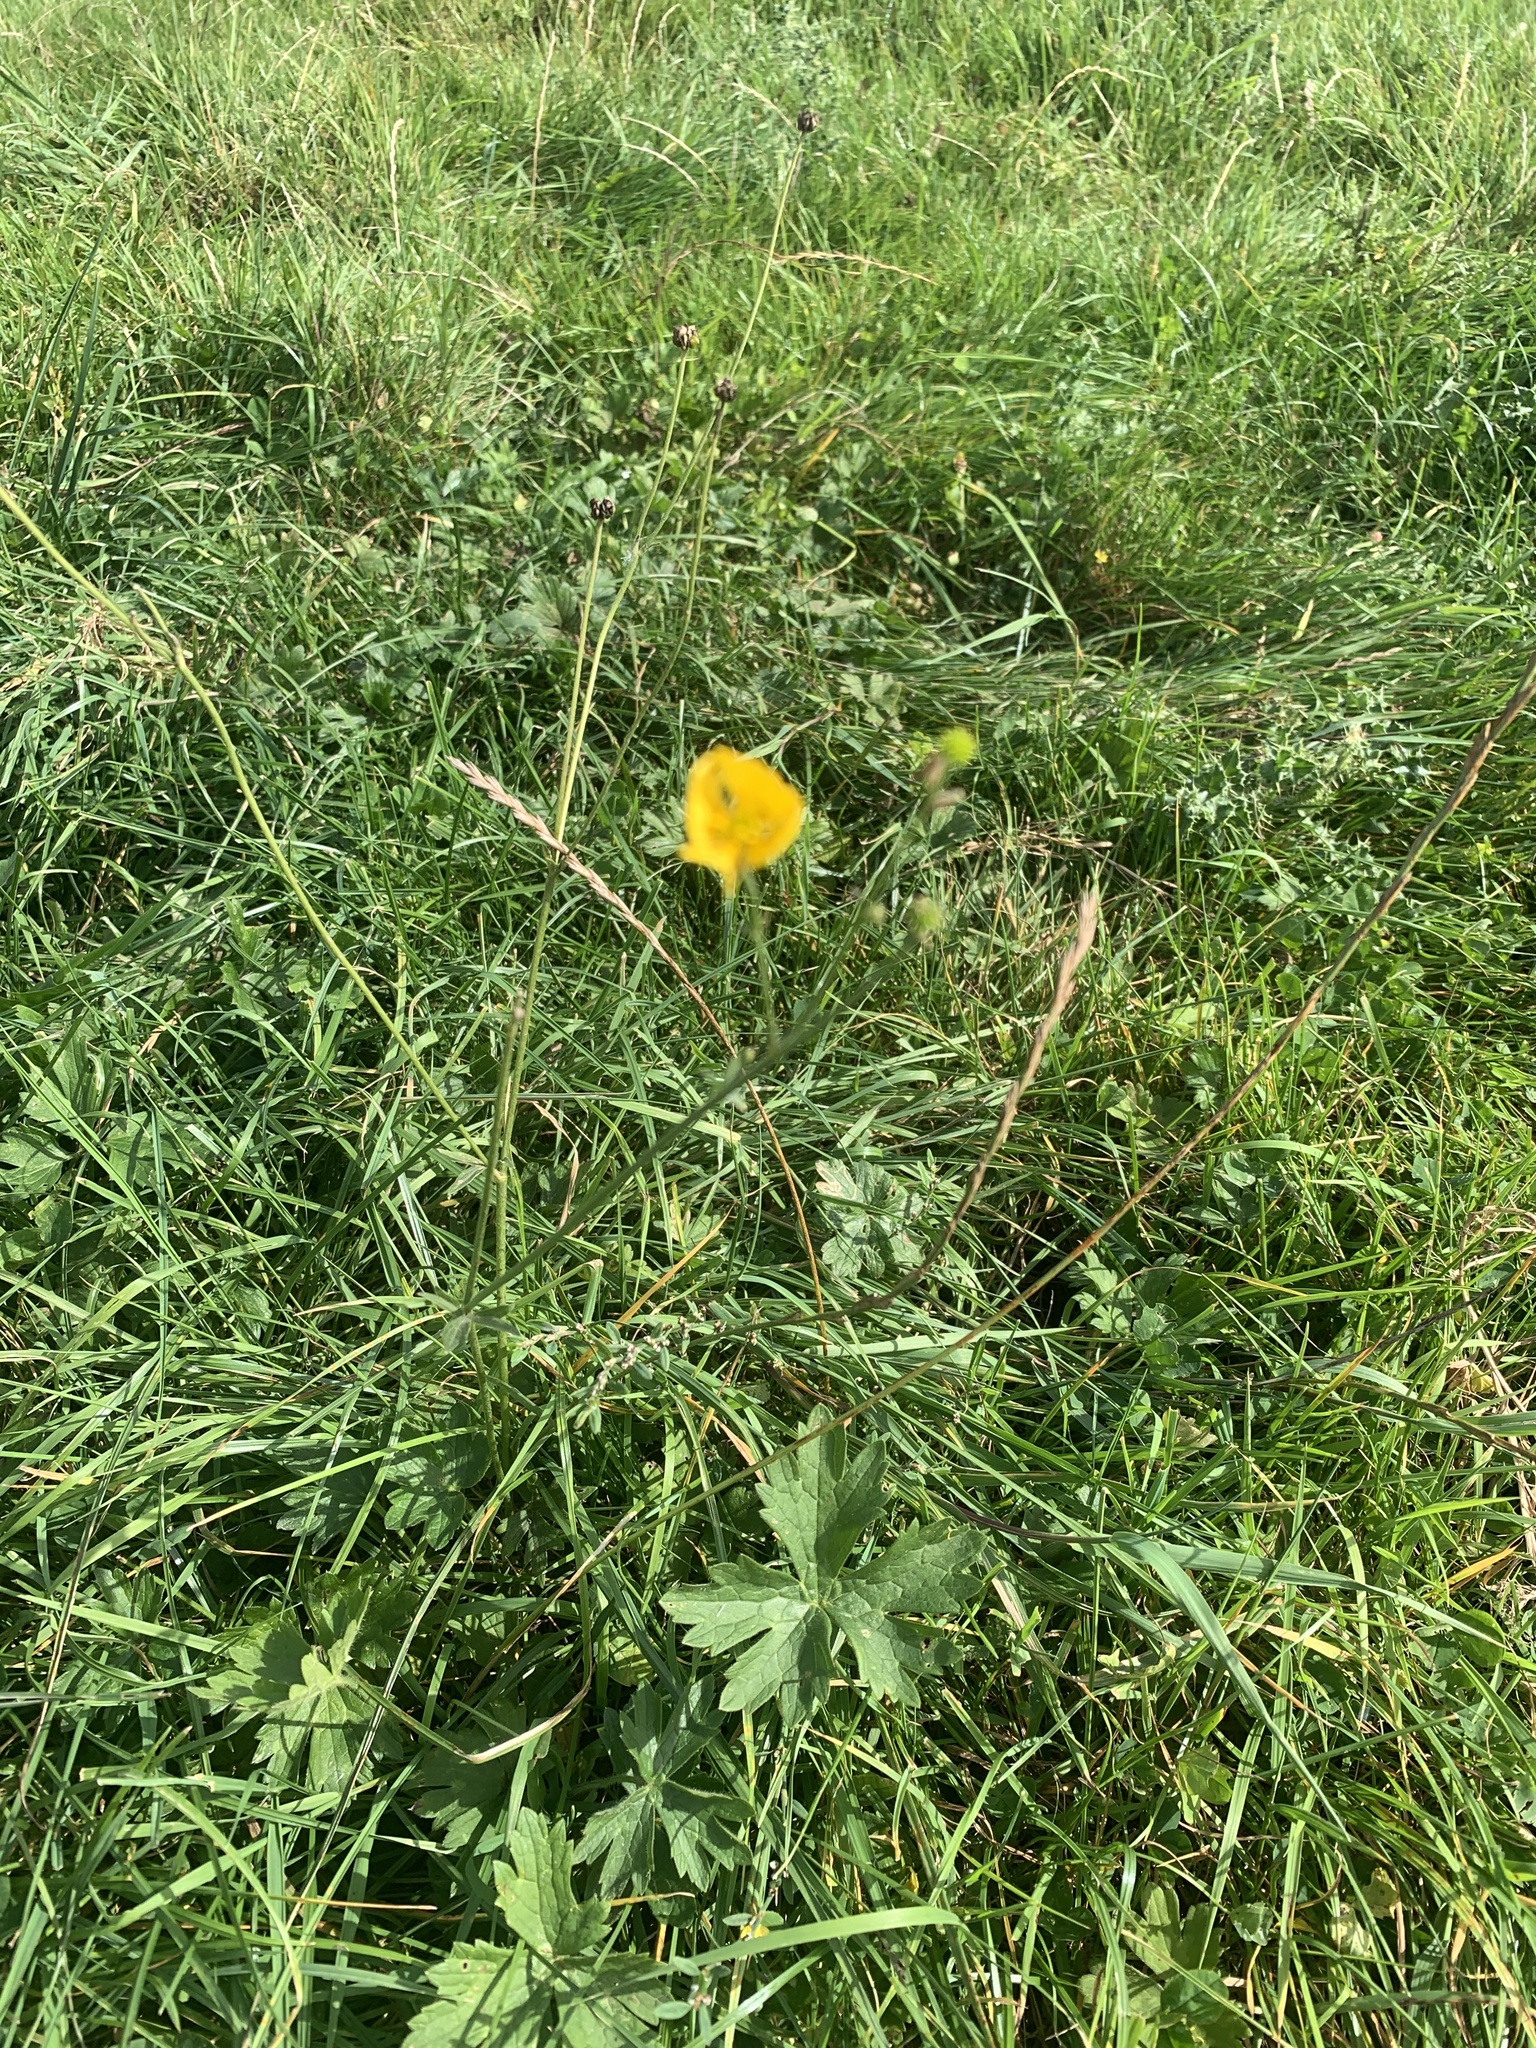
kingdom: Plantae
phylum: Tracheophyta
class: Magnoliopsida
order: Ranunculales
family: Ranunculaceae
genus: Ranunculus
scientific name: Ranunculus acris
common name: Meadow buttercup
